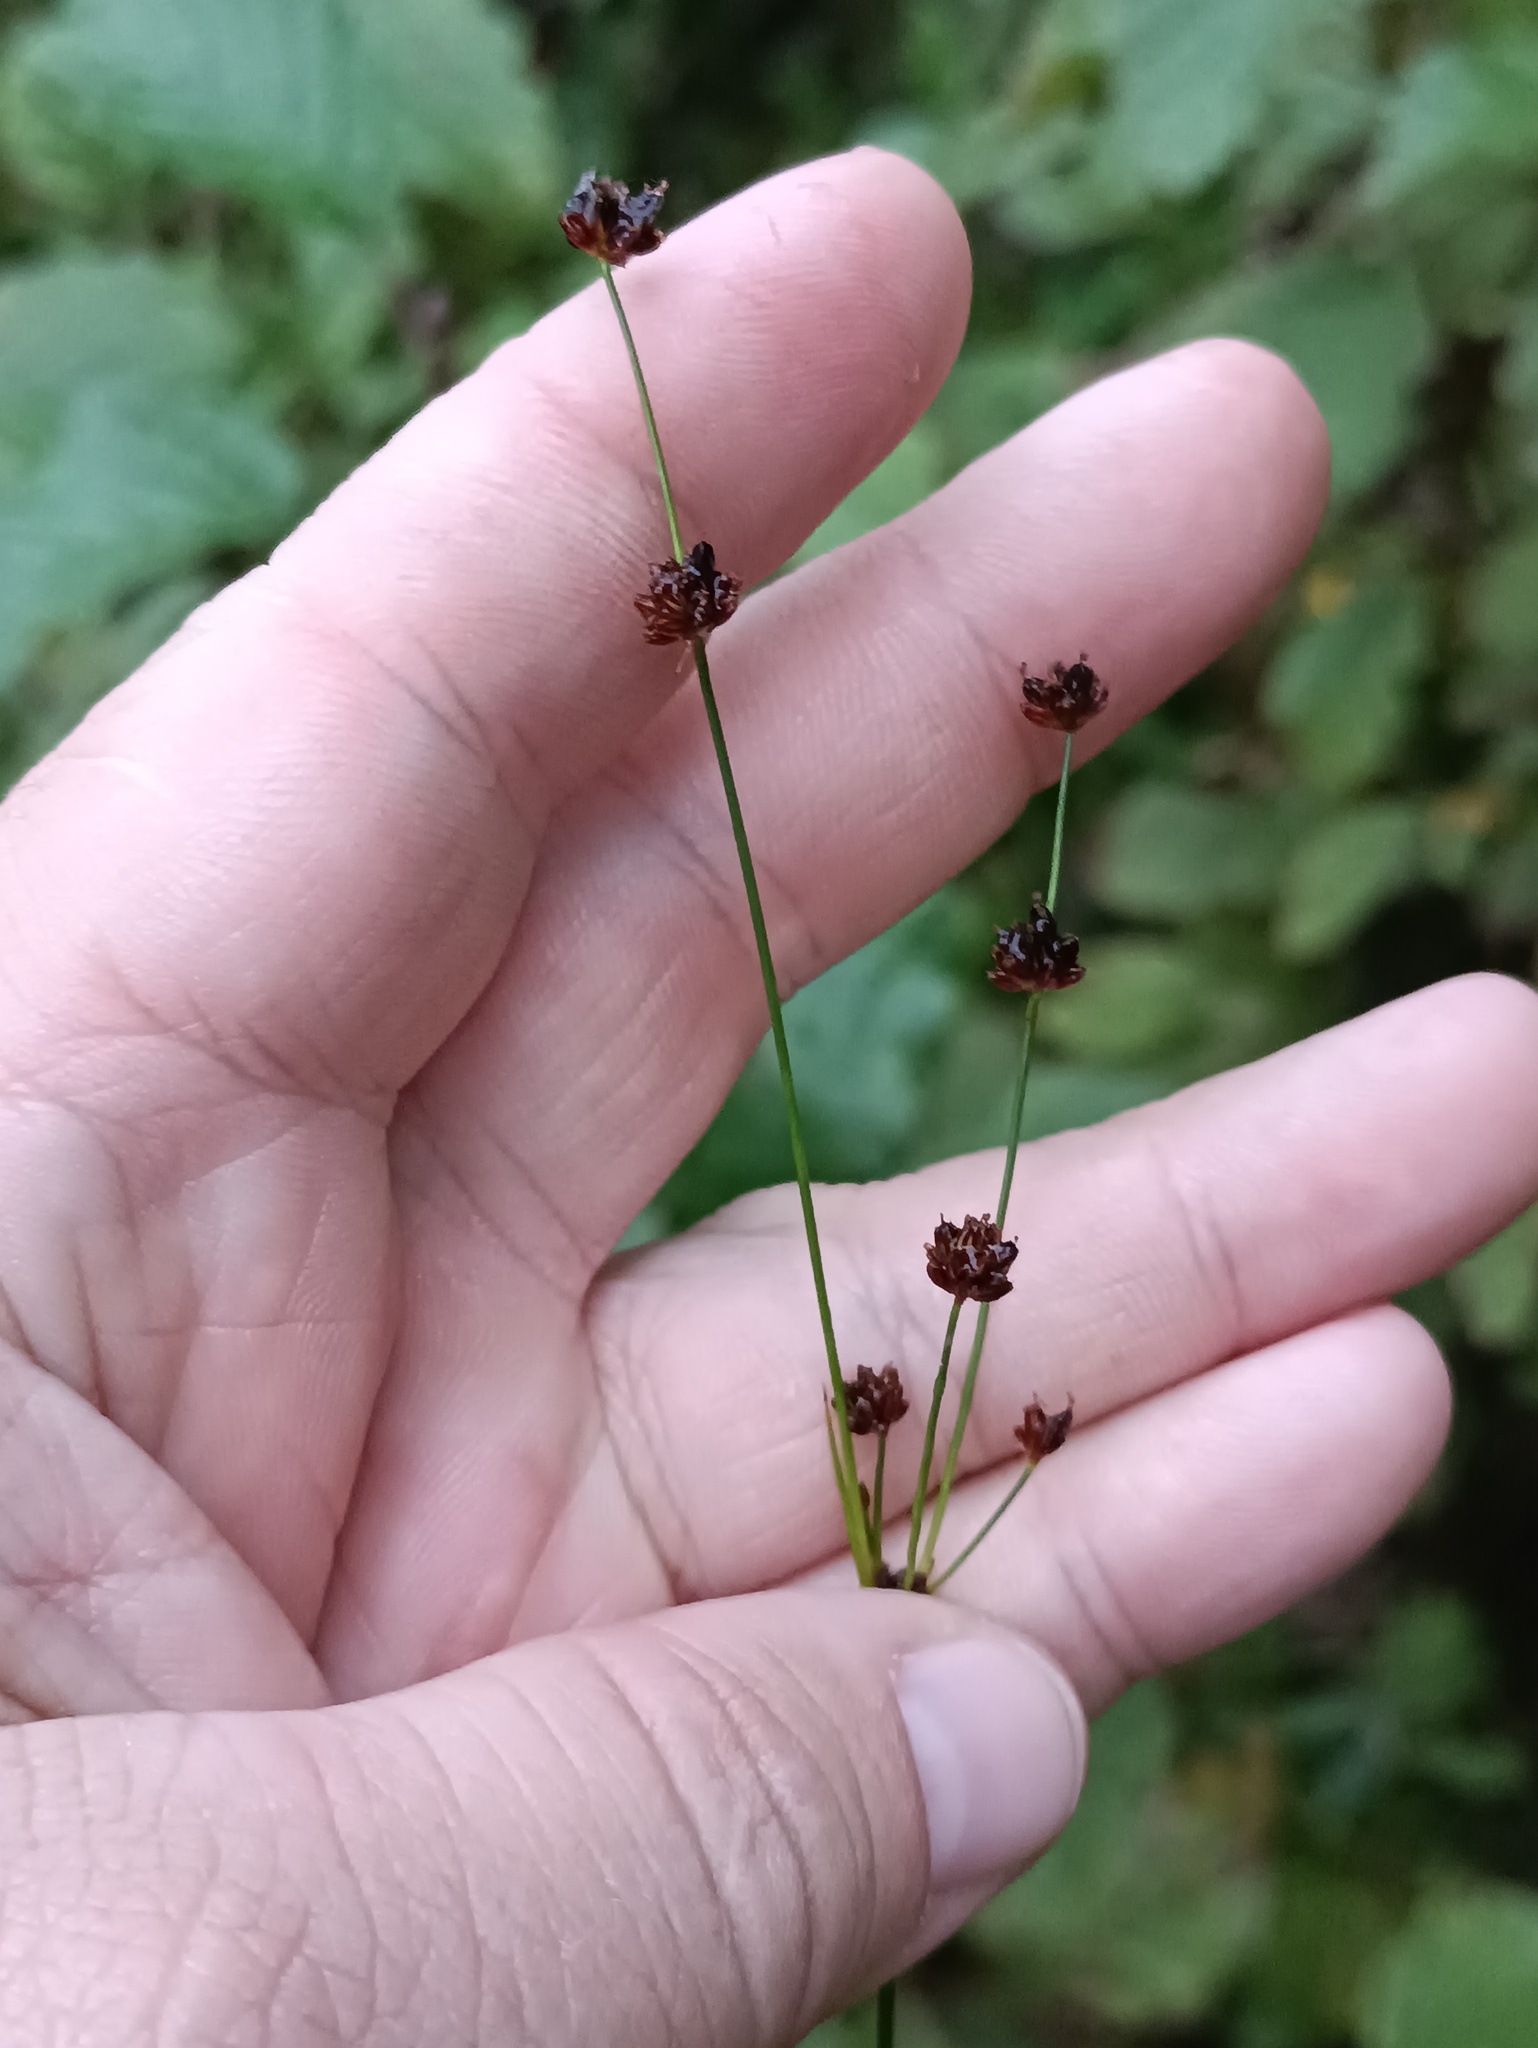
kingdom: Plantae
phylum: Tracheophyta
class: Liliopsida
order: Poales
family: Juncaceae
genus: Juncus
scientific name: Juncus alpinoarticulatus
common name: Alpine rush
